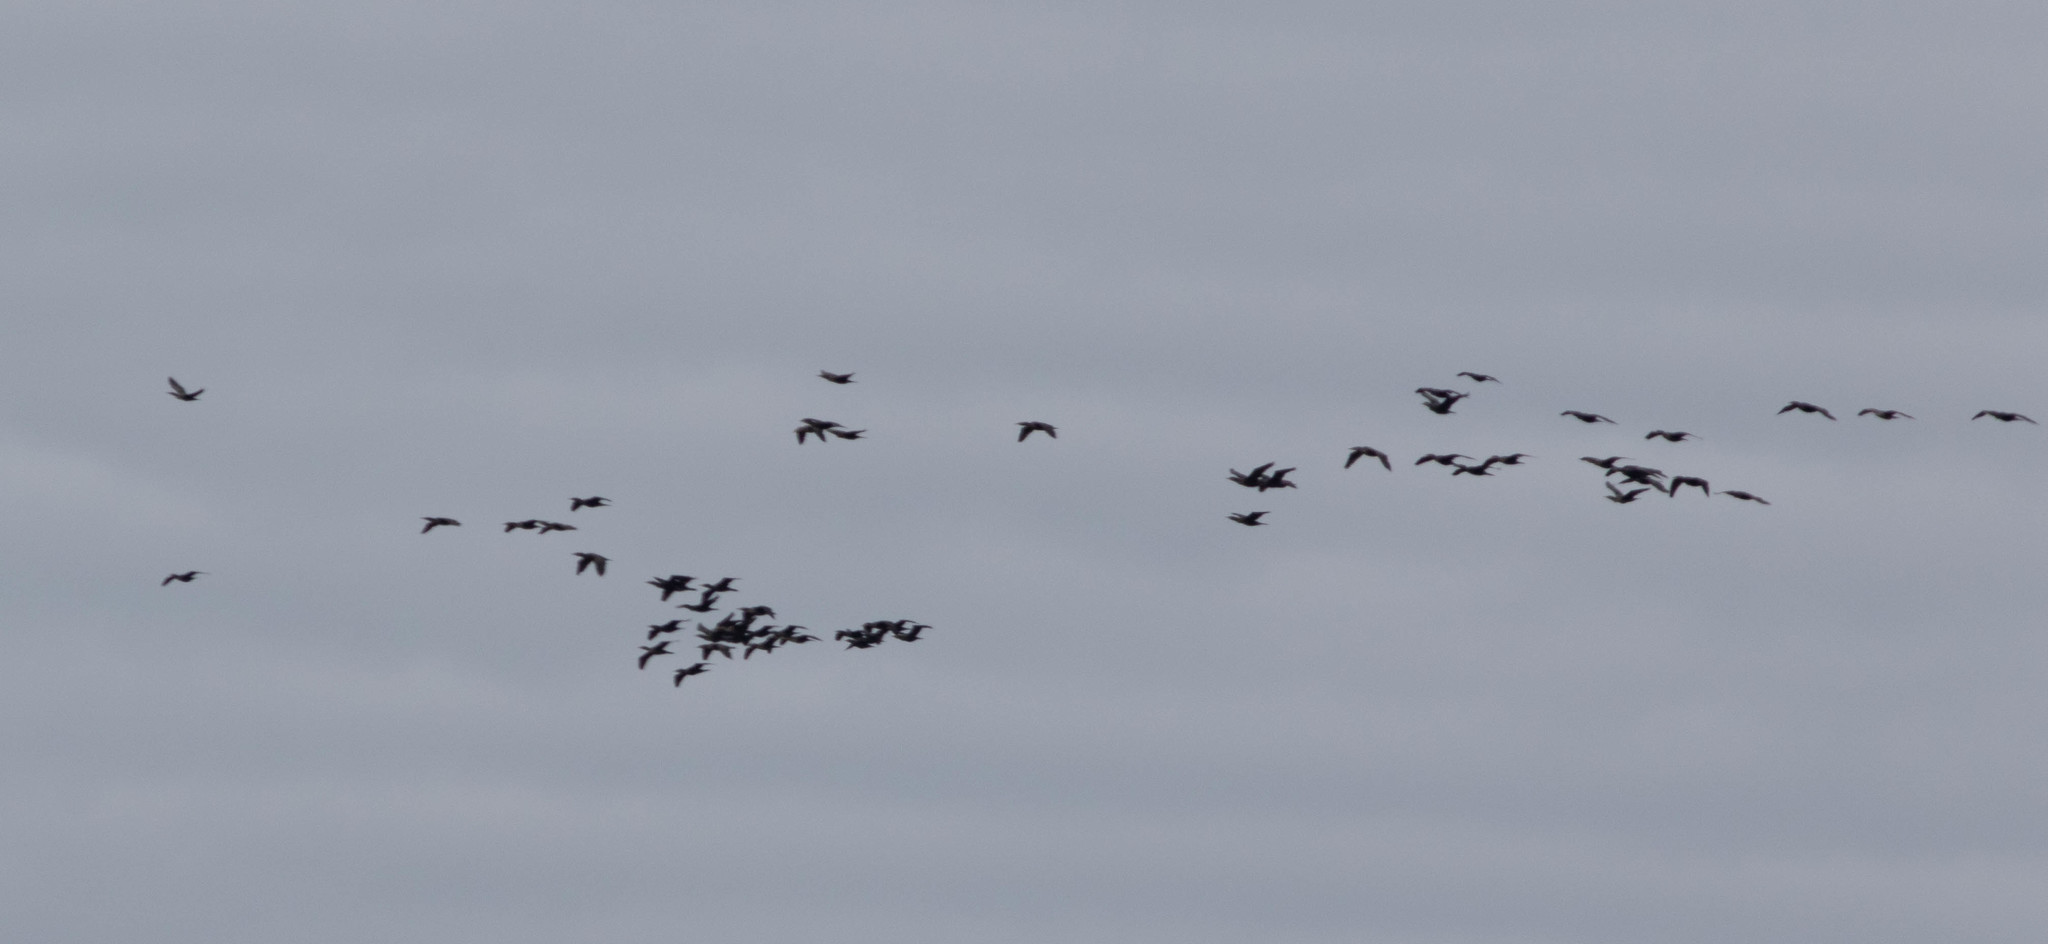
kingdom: Animalia
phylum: Chordata
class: Aves
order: Suliformes
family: Phalacrocoracidae
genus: Phalacrocorax
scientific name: Phalacrocorax auritus
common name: Double-crested cormorant
